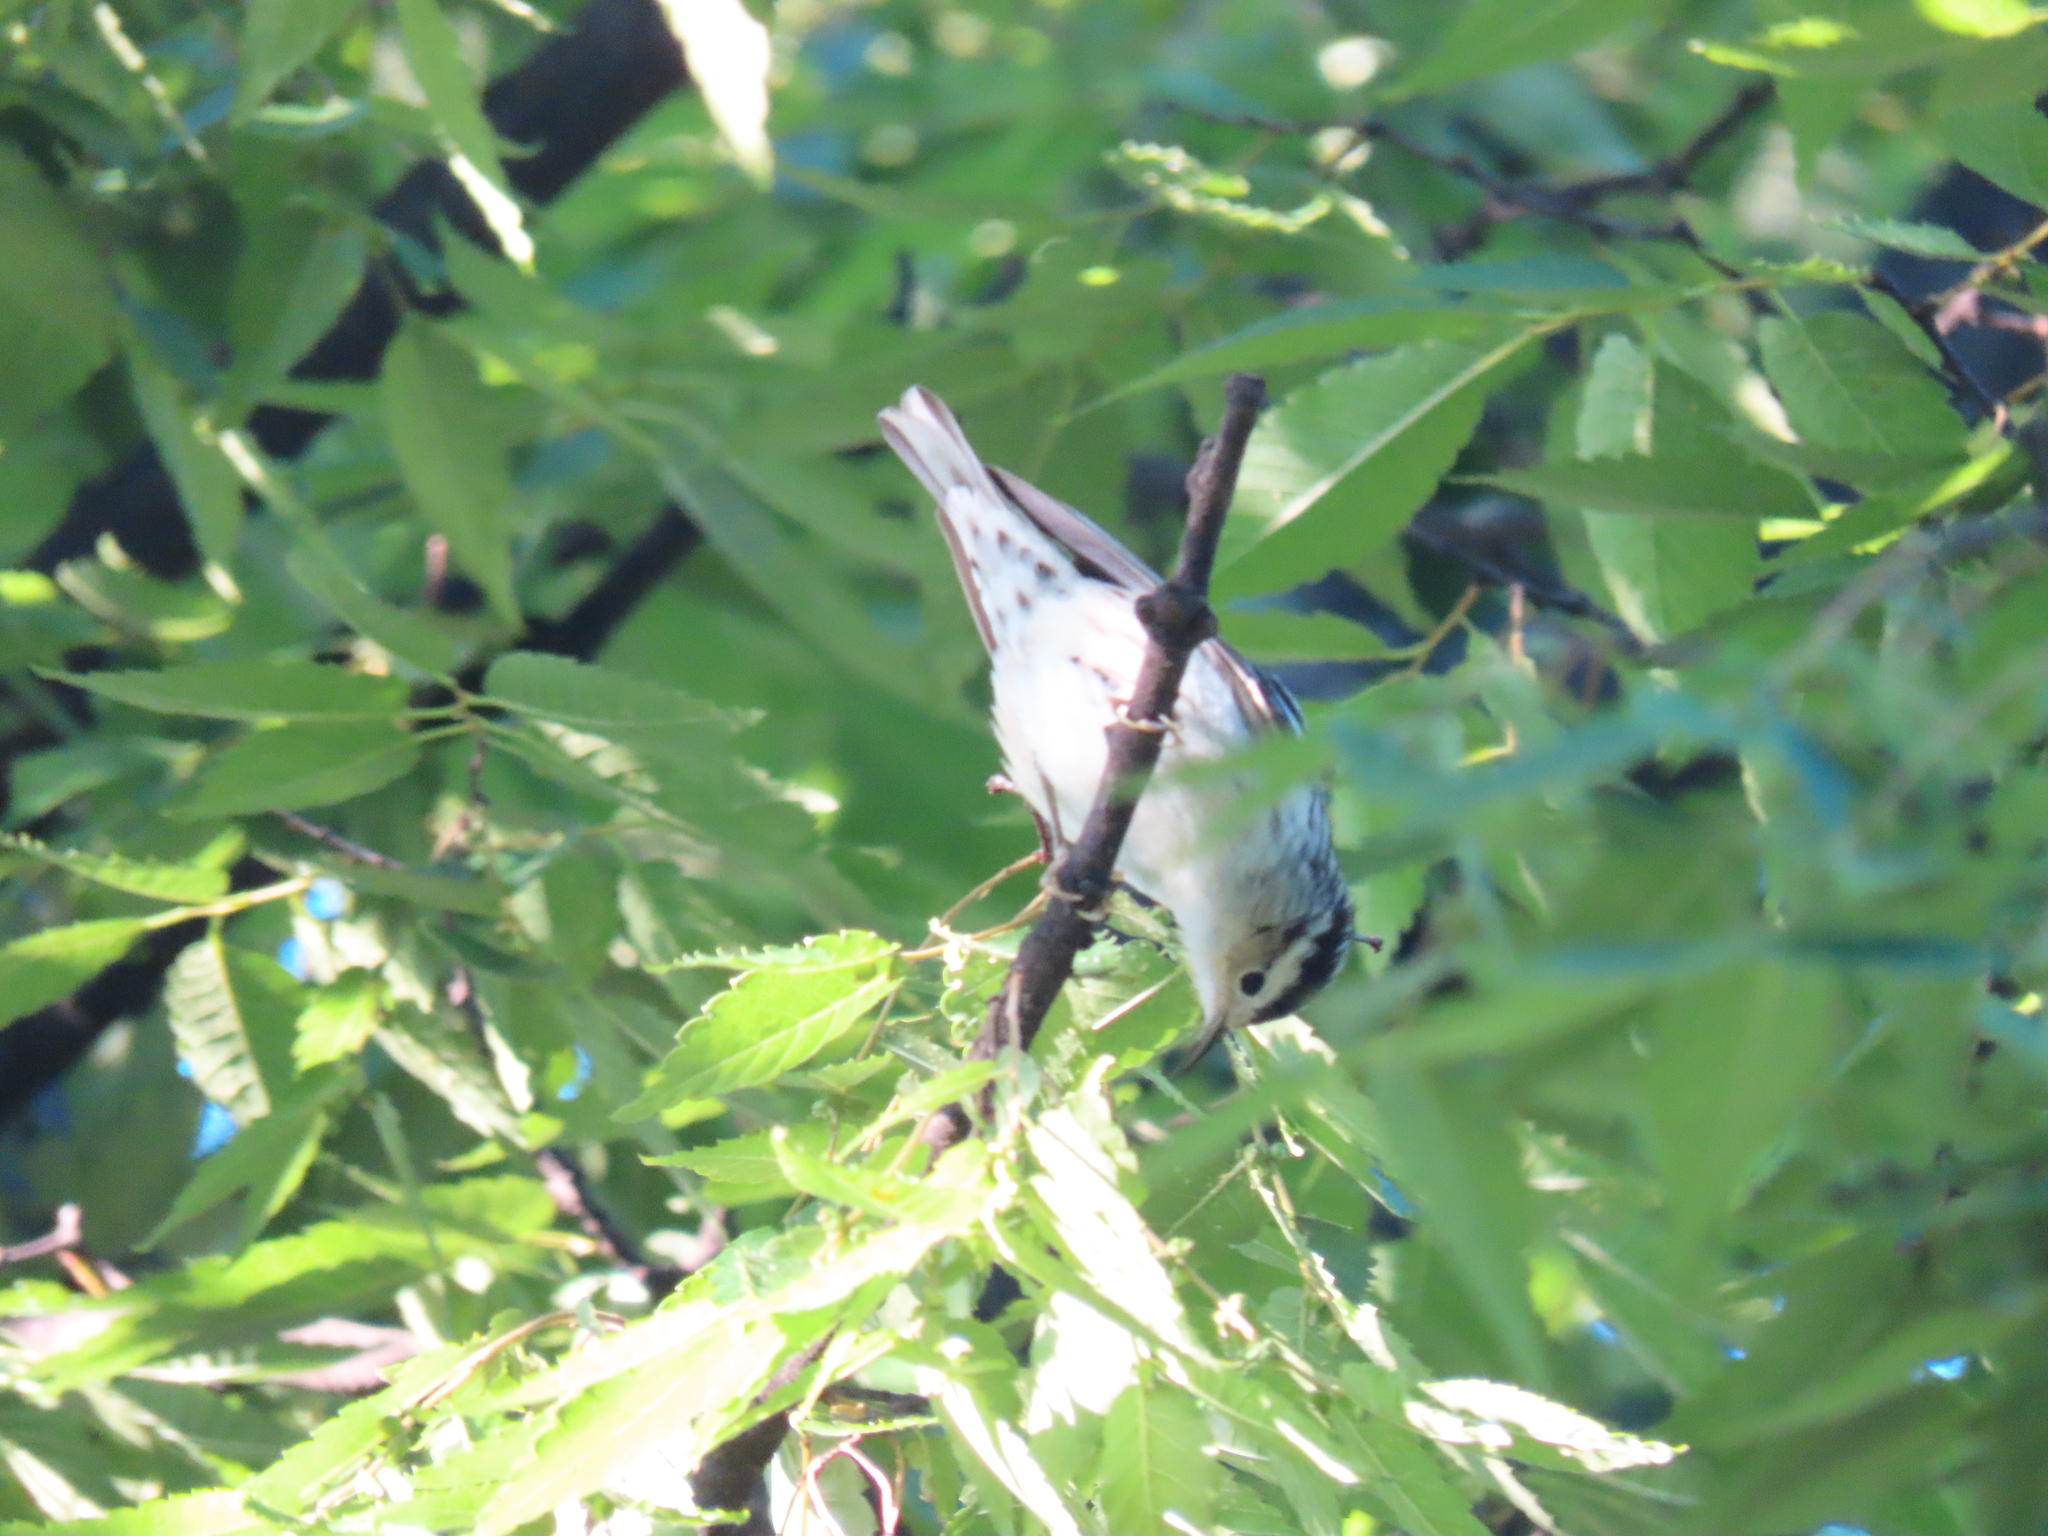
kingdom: Animalia
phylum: Chordata
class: Aves
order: Passeriformes
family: Parulidae
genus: Mniotilta
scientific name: Mniotilta varia
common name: Black-and-white warbler
